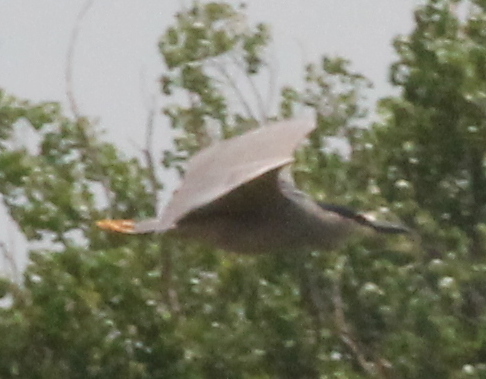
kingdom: Animalia
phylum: Chordata
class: Aves
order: Pelecaniformes
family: Ardeidae
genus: Nycticorax
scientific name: Nycticorax nycticorax
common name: Black-crowned night heron
